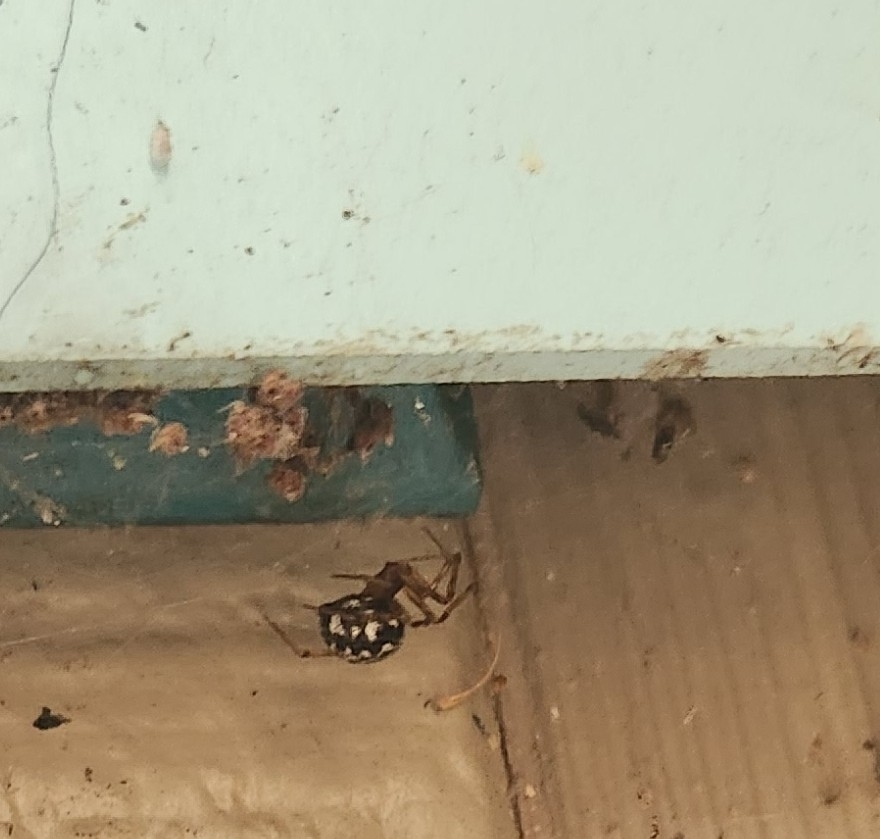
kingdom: Animalia
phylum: Arthropoda
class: Arachnida
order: Araneae
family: Theridiidae
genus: Steatoda
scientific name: Steatoda triangulosa
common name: Triangulate bud spider
